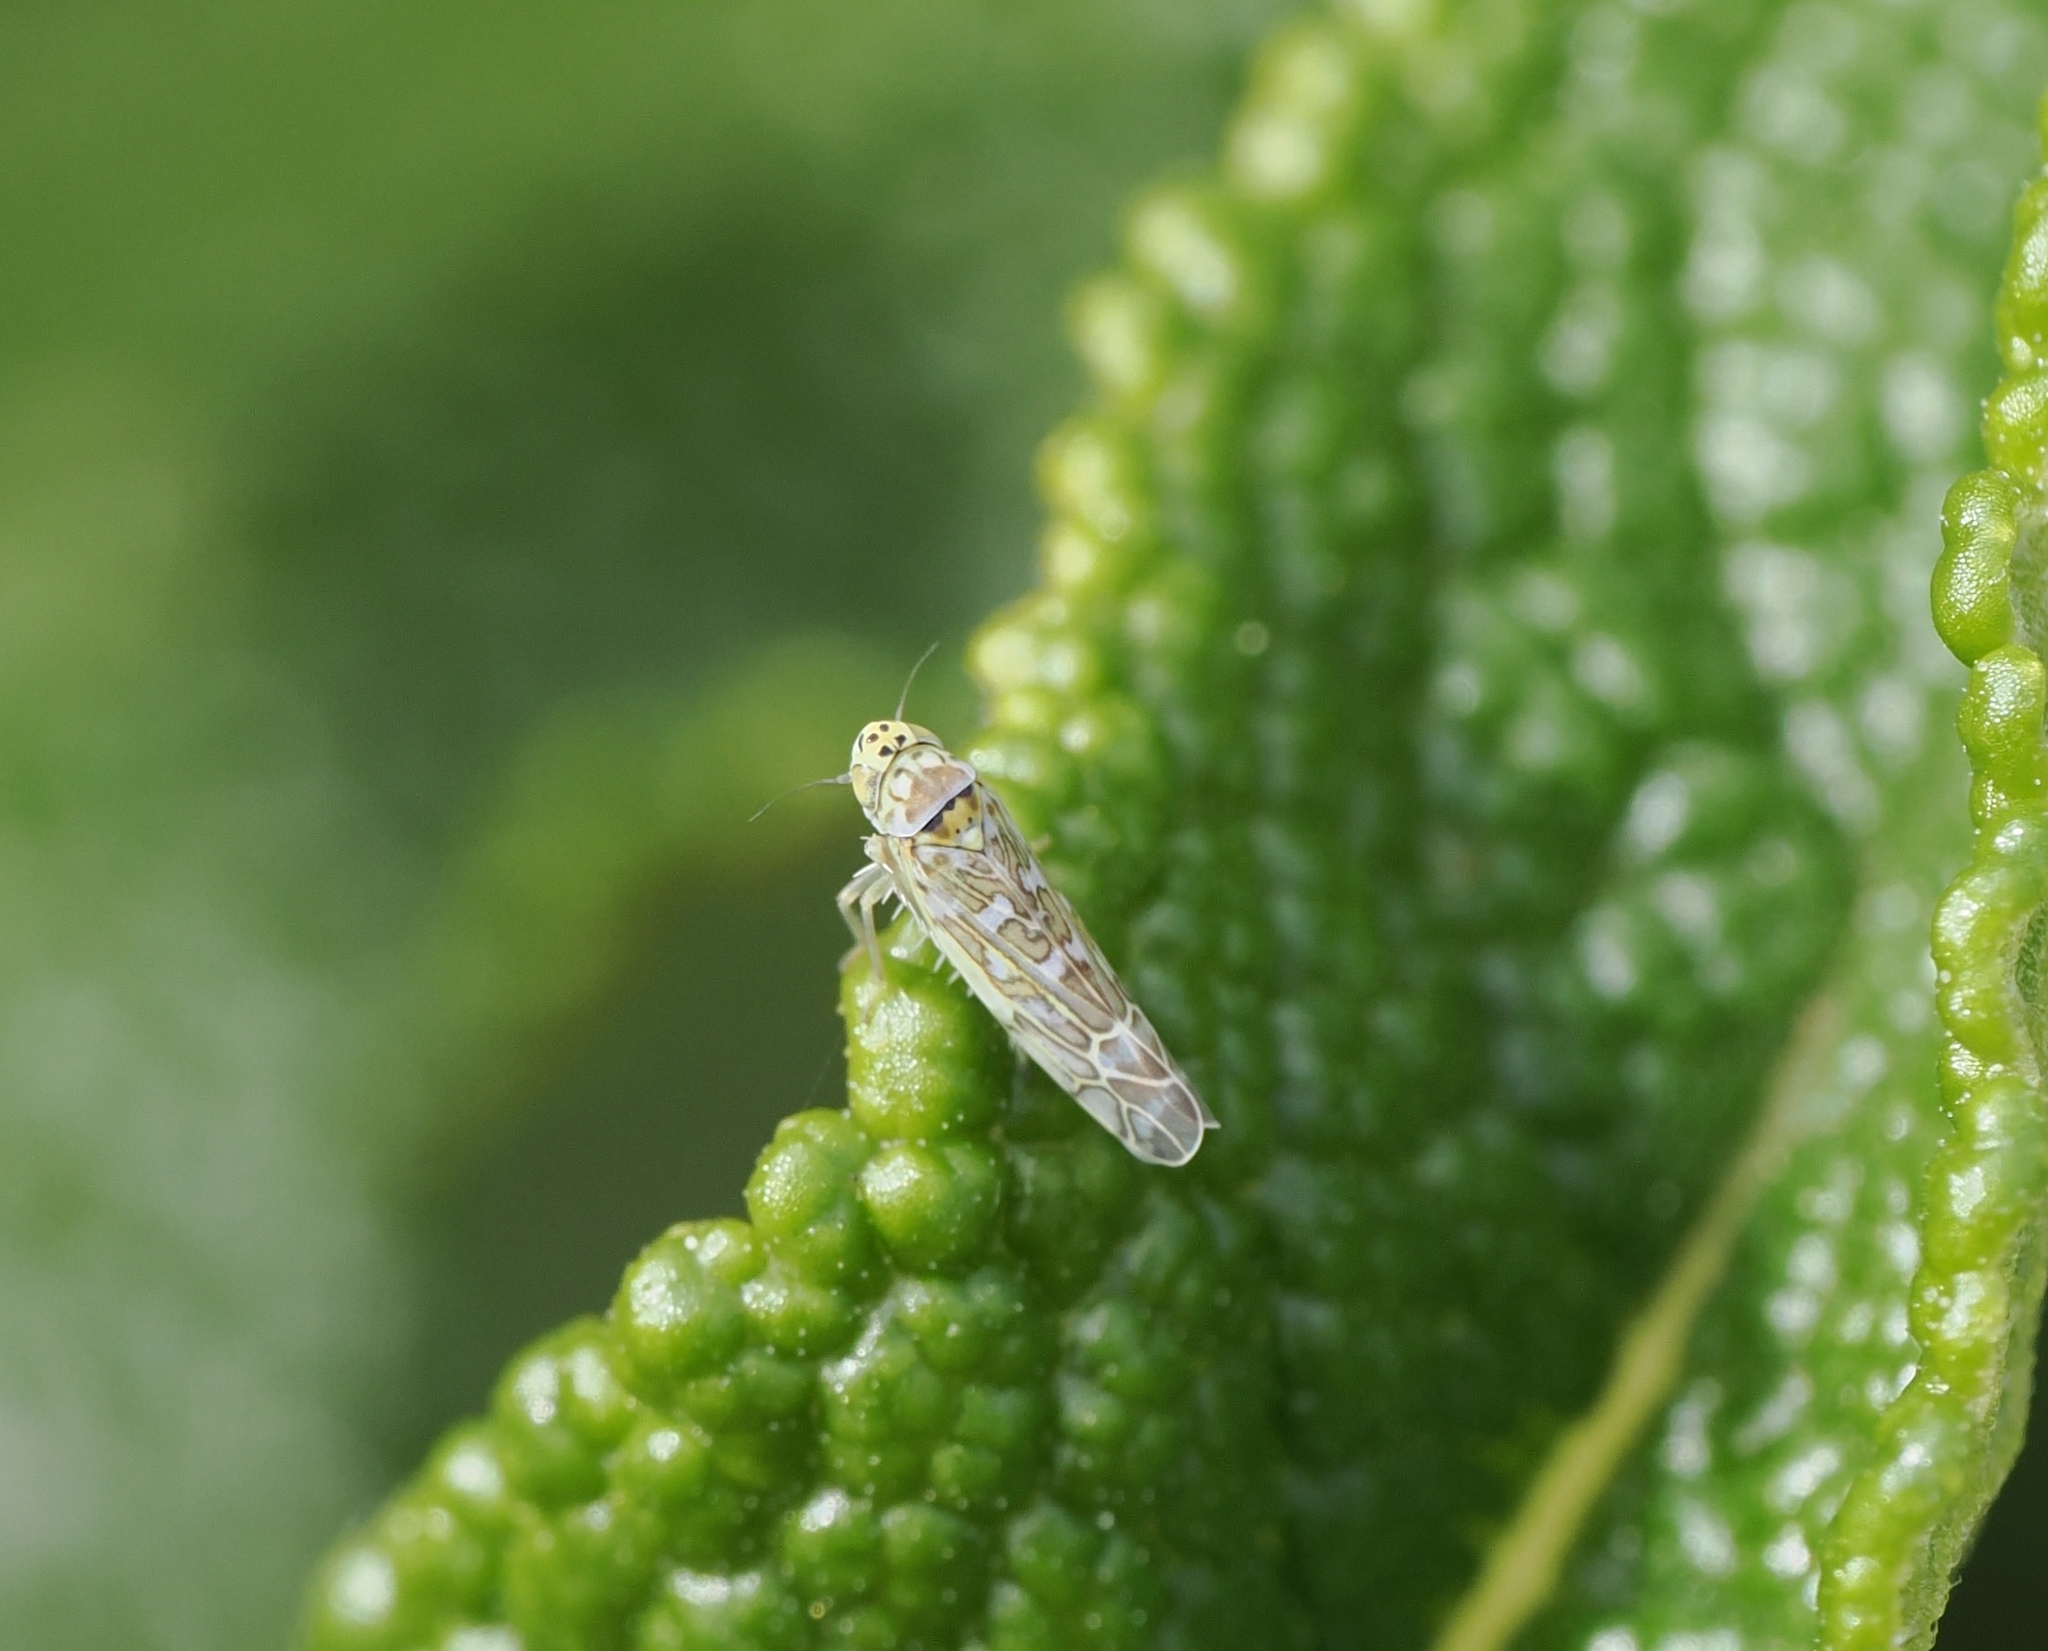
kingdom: Animalia
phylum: Arthropoda
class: Insecta
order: Hemiptera
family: Cicadellidae
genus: Eupteryx
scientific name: Eupteryx decemnotata
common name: Ligurian leafhopper
